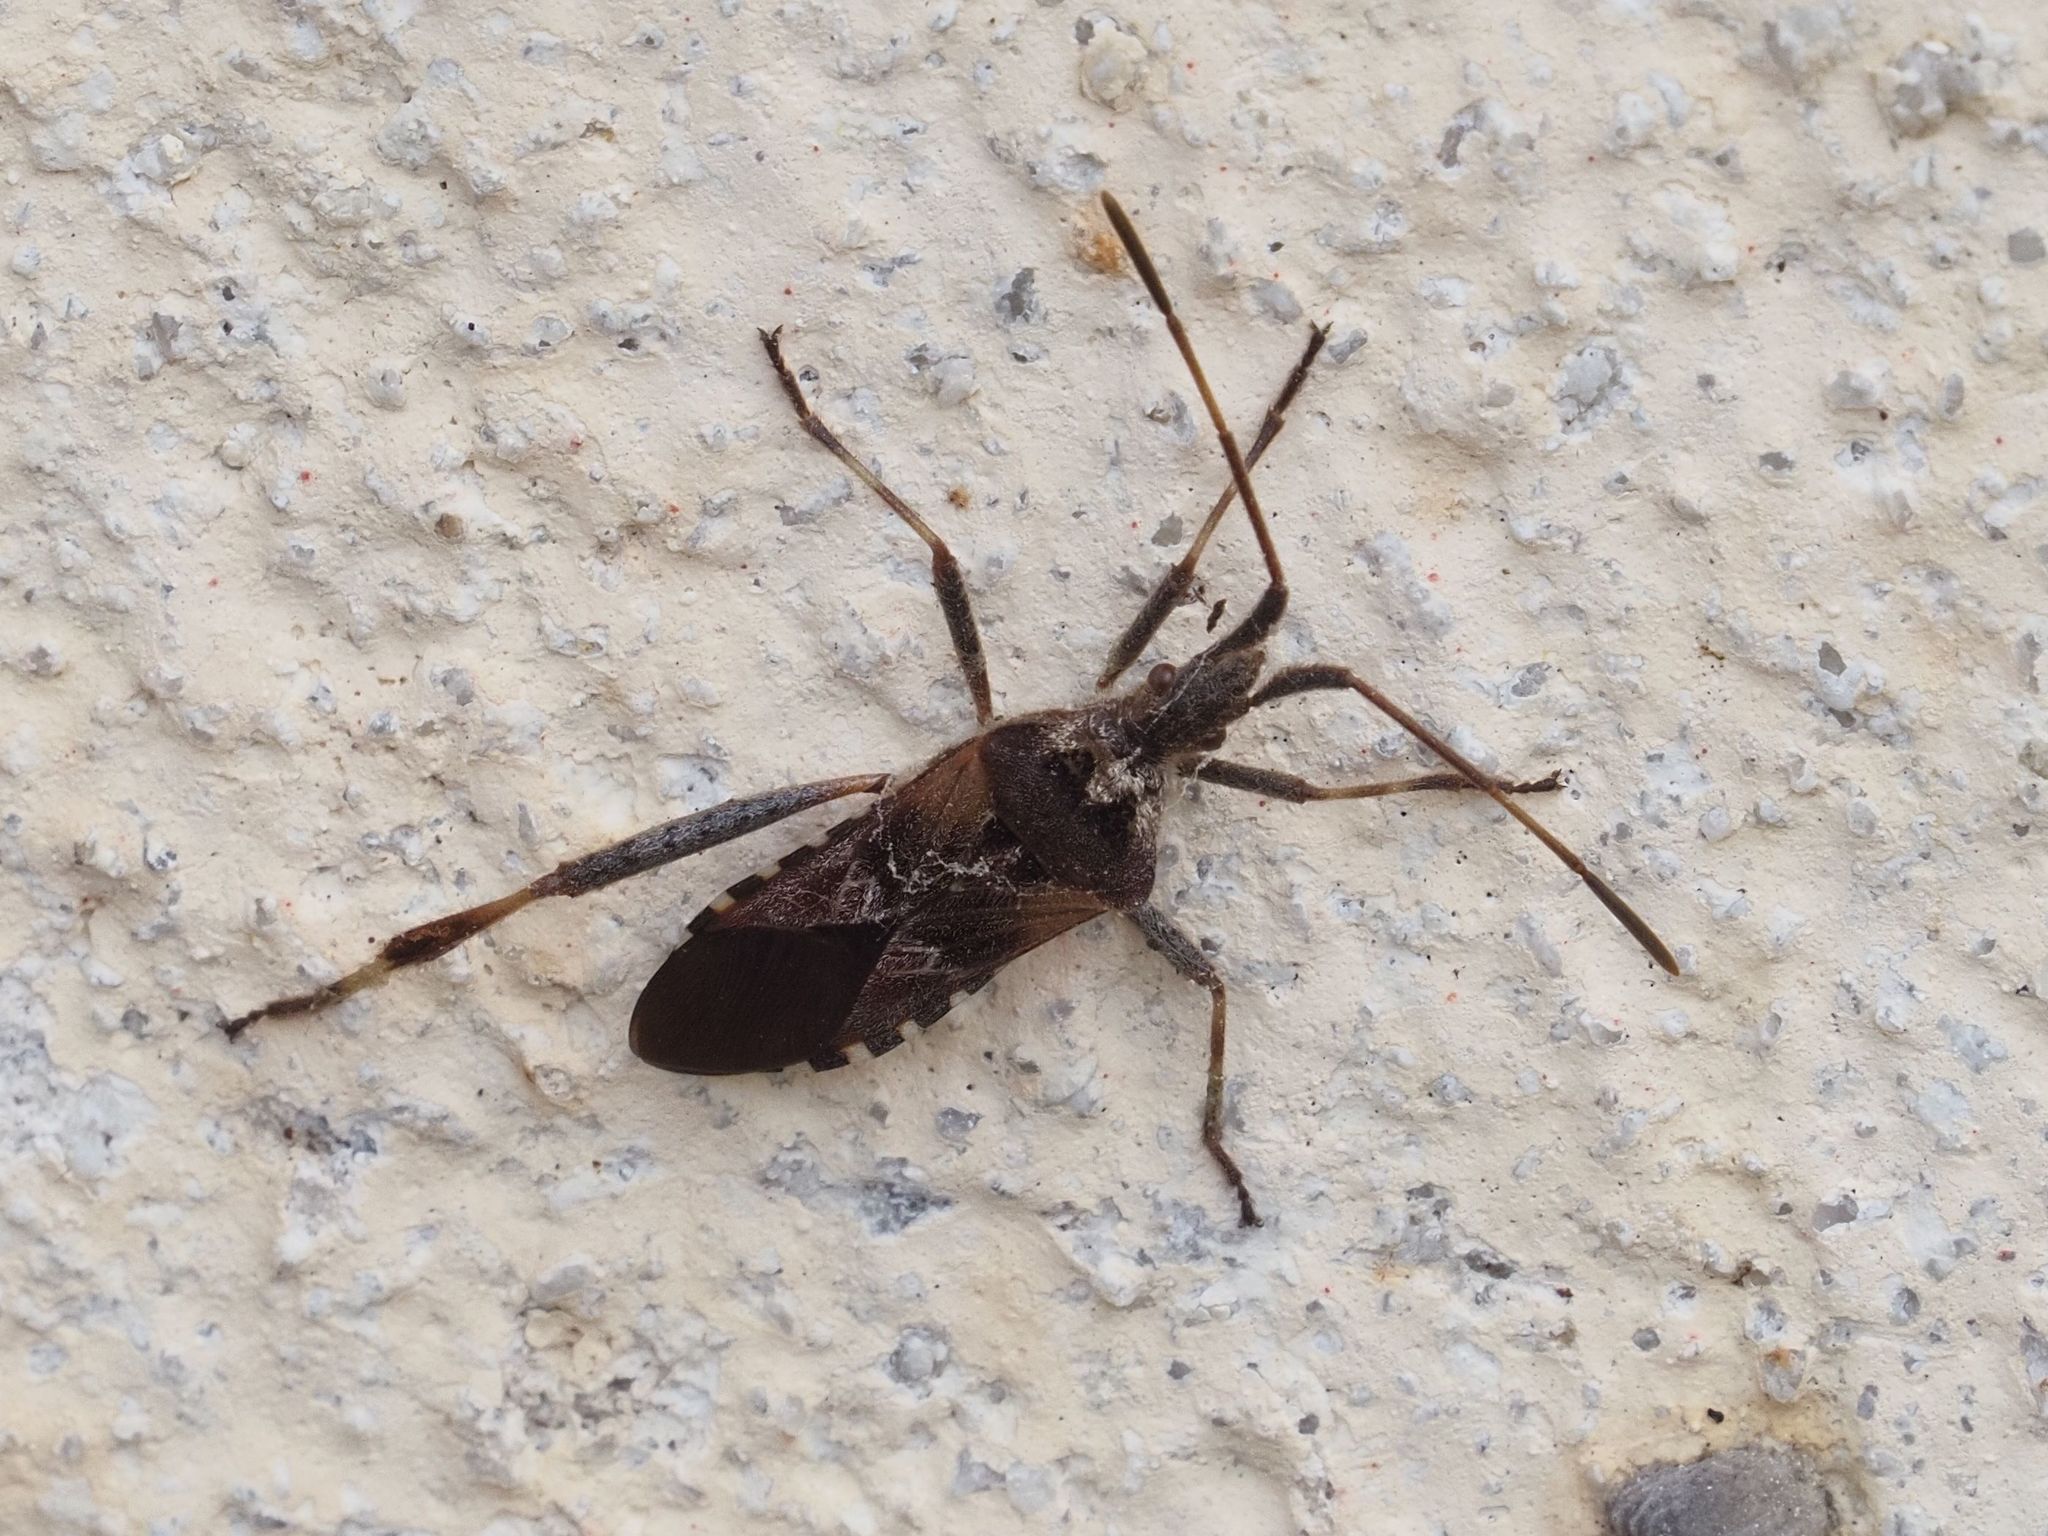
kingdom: Animalia
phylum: Arthropoda
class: Insecta
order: Hemiptera
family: Coreidae
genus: Leptoglossus
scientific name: Leptoglossus occidentalis
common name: Western conifer-seed bug
